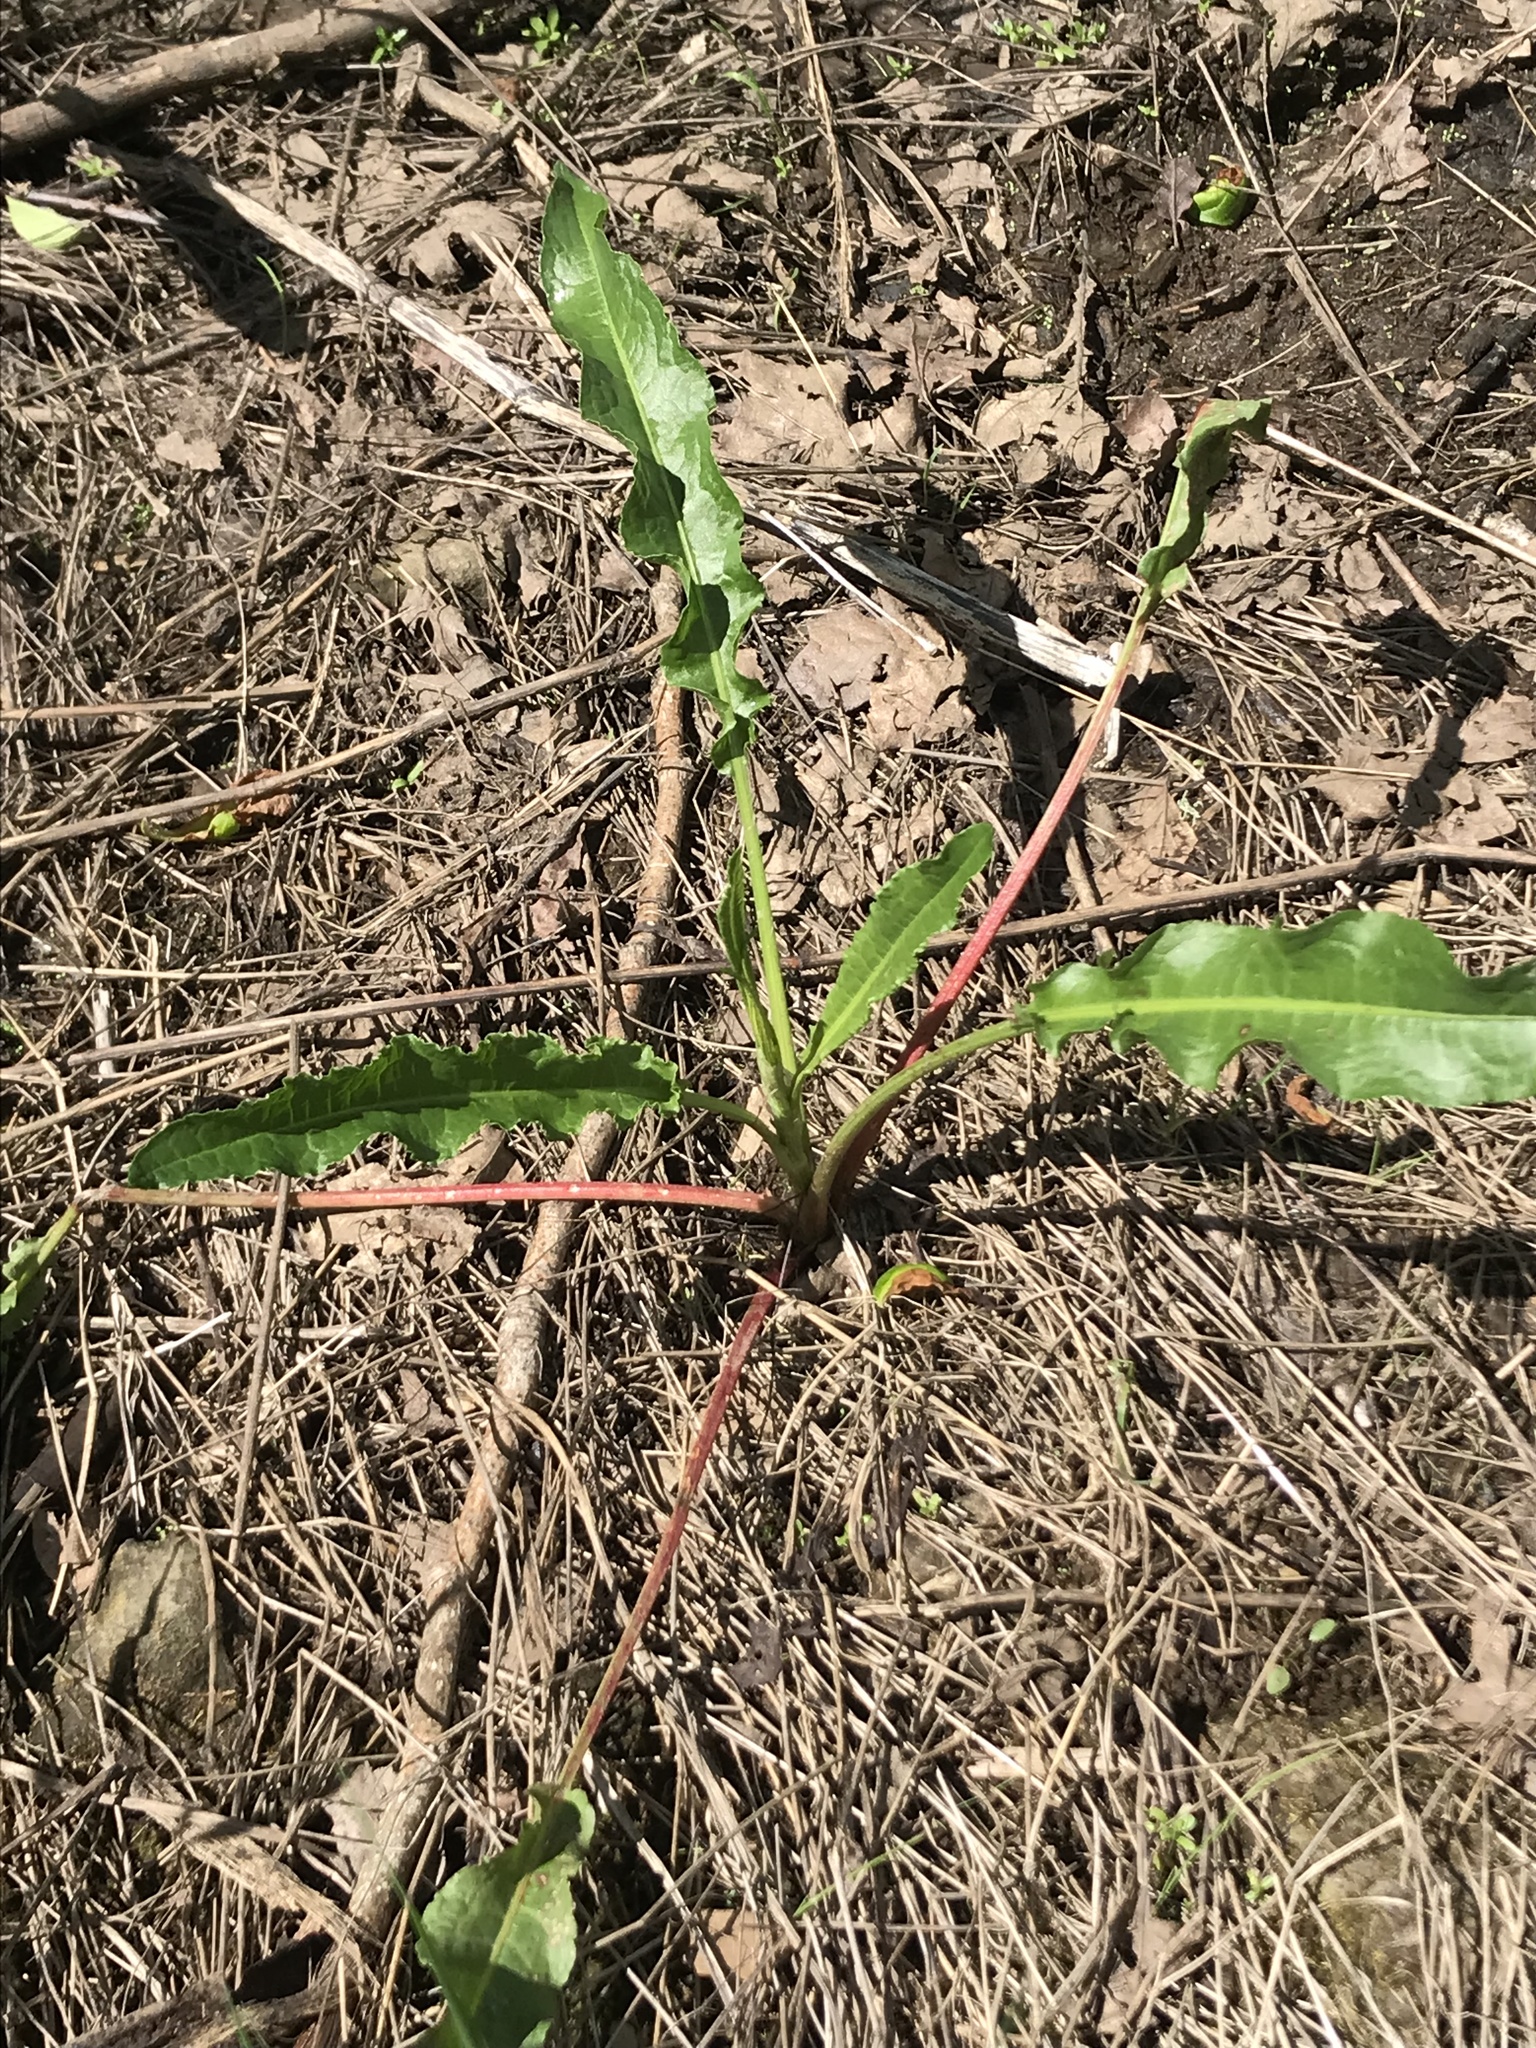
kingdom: Plantae
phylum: Tracheophyta
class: Magnoliopsida
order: Caryophyllales
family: Polygonaceae
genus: Rumex
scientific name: Rumex crispus
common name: Curled dock
